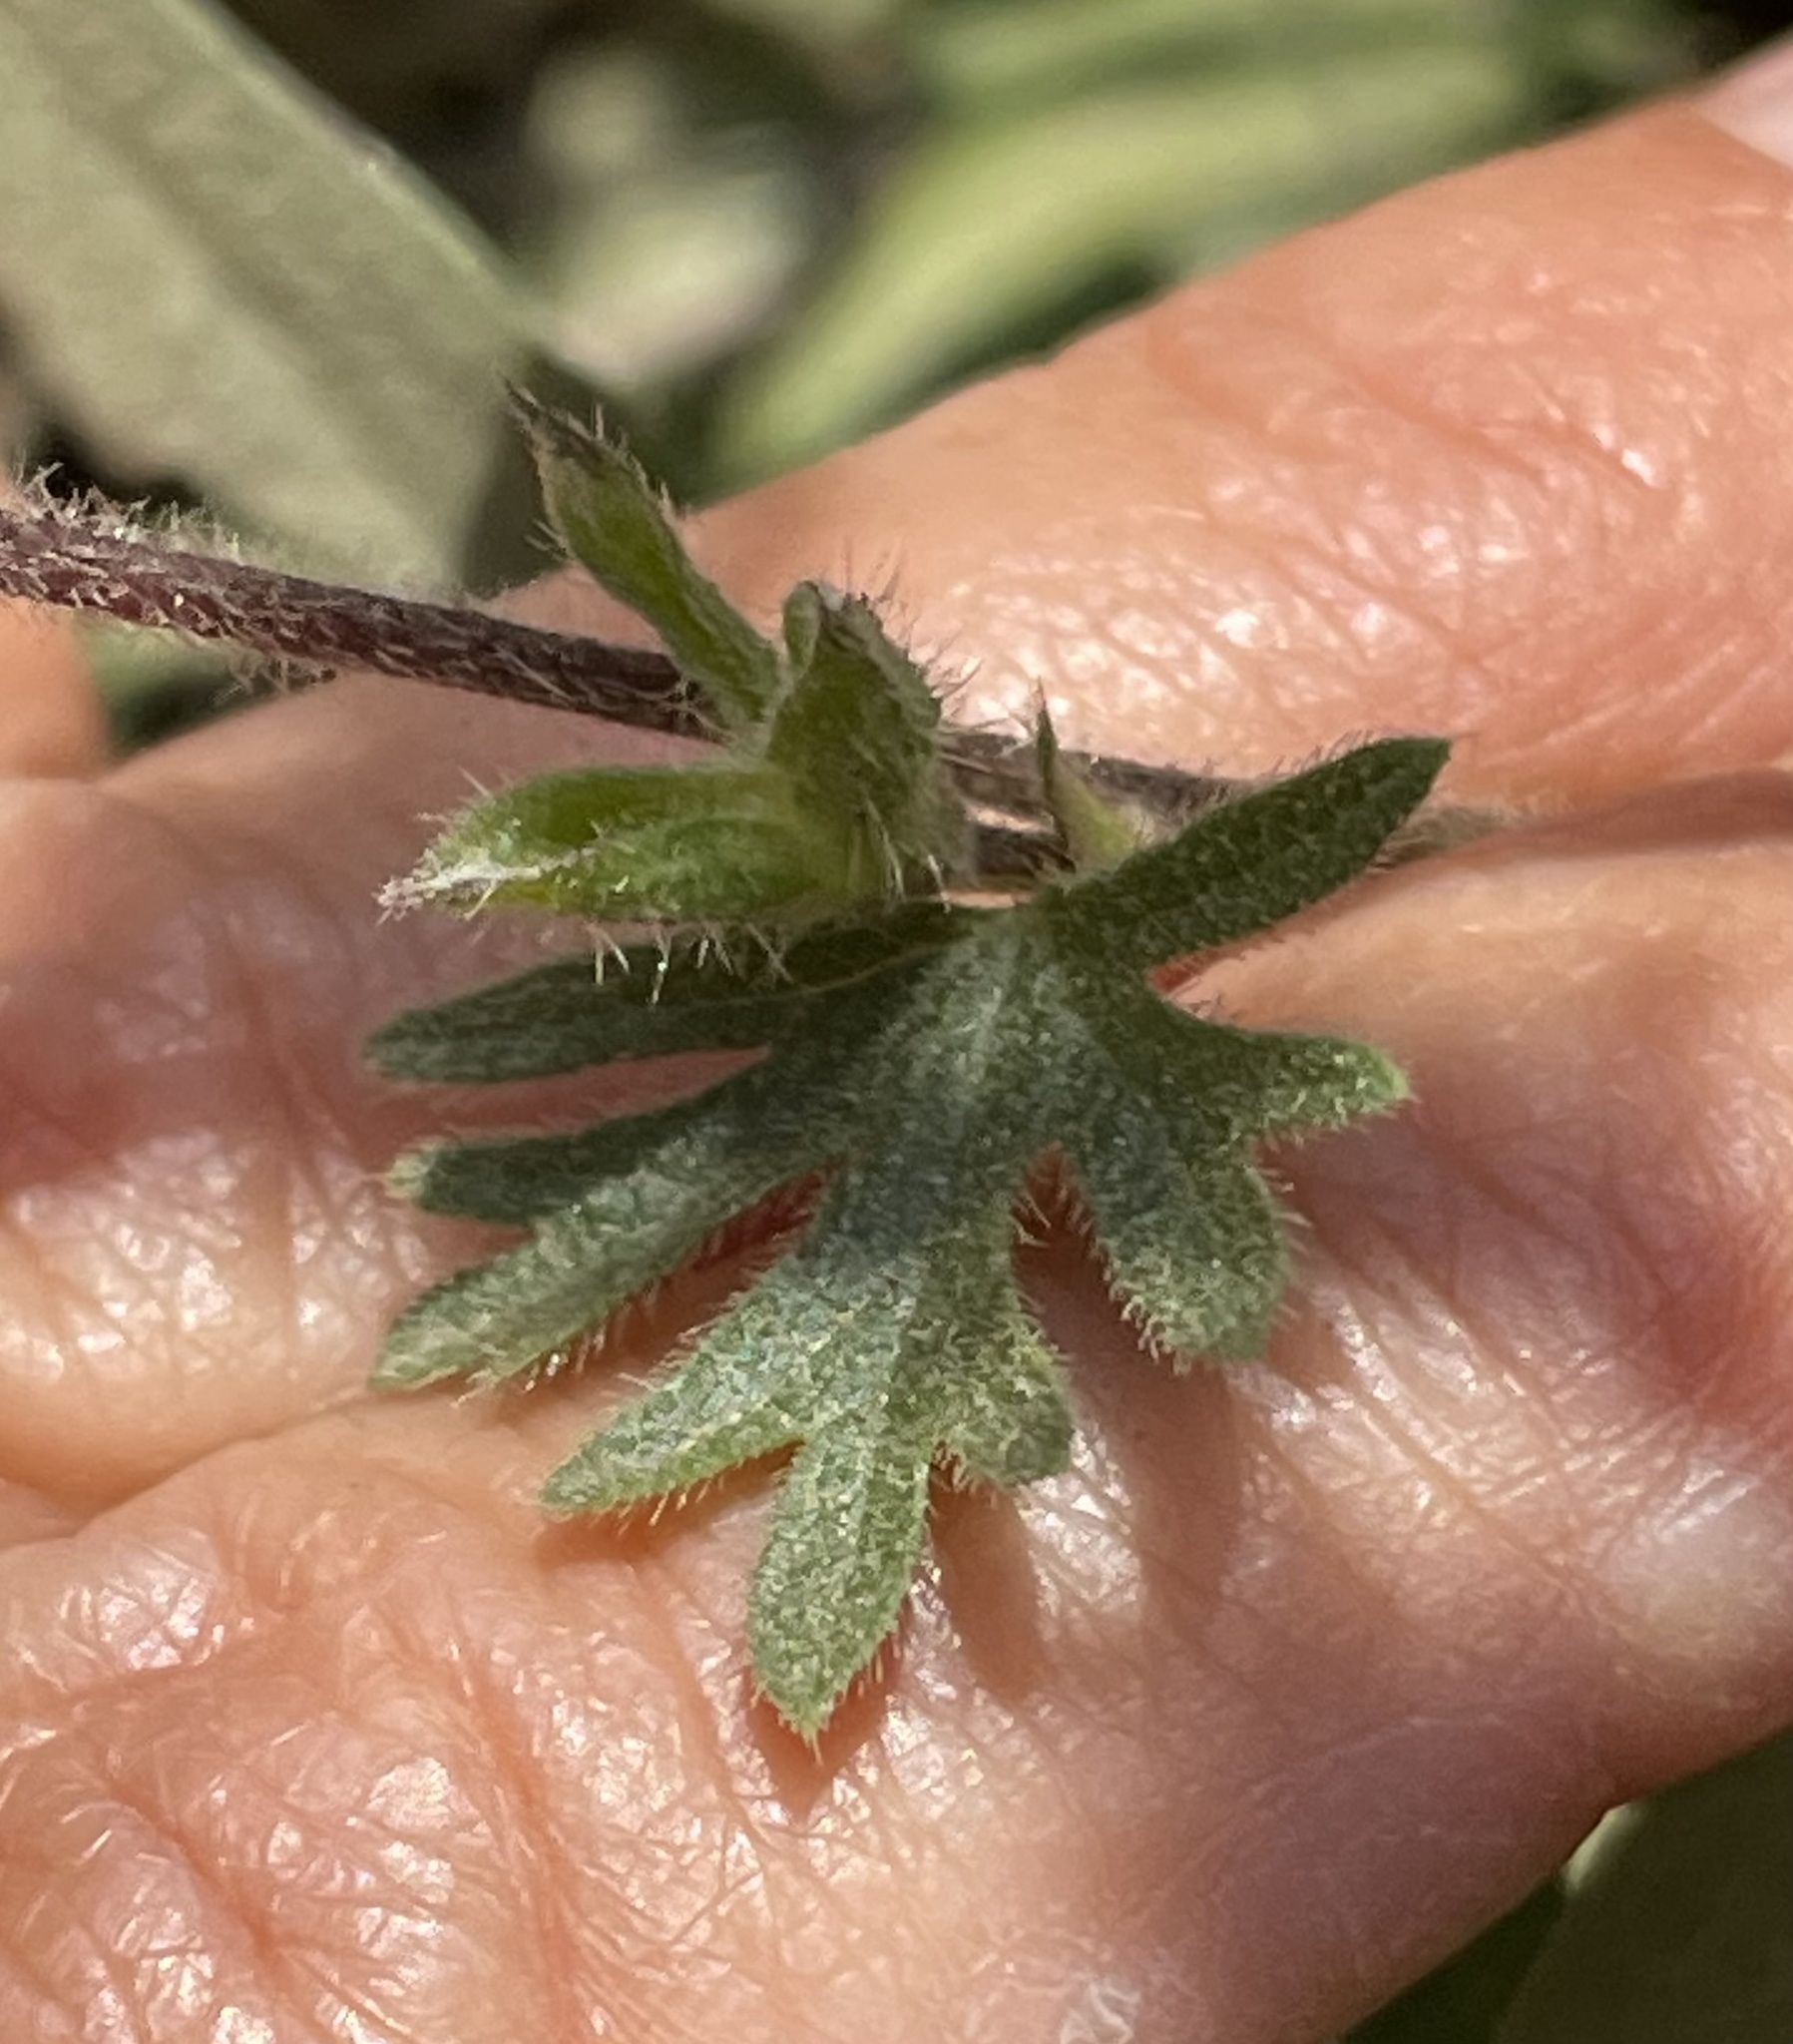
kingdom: Plantae
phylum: Tracheophyta
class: Magnoliopsida
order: Malvales
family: Malvaceae
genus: Sidalcea
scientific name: Sidalcea malviflora
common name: Greek mallow
